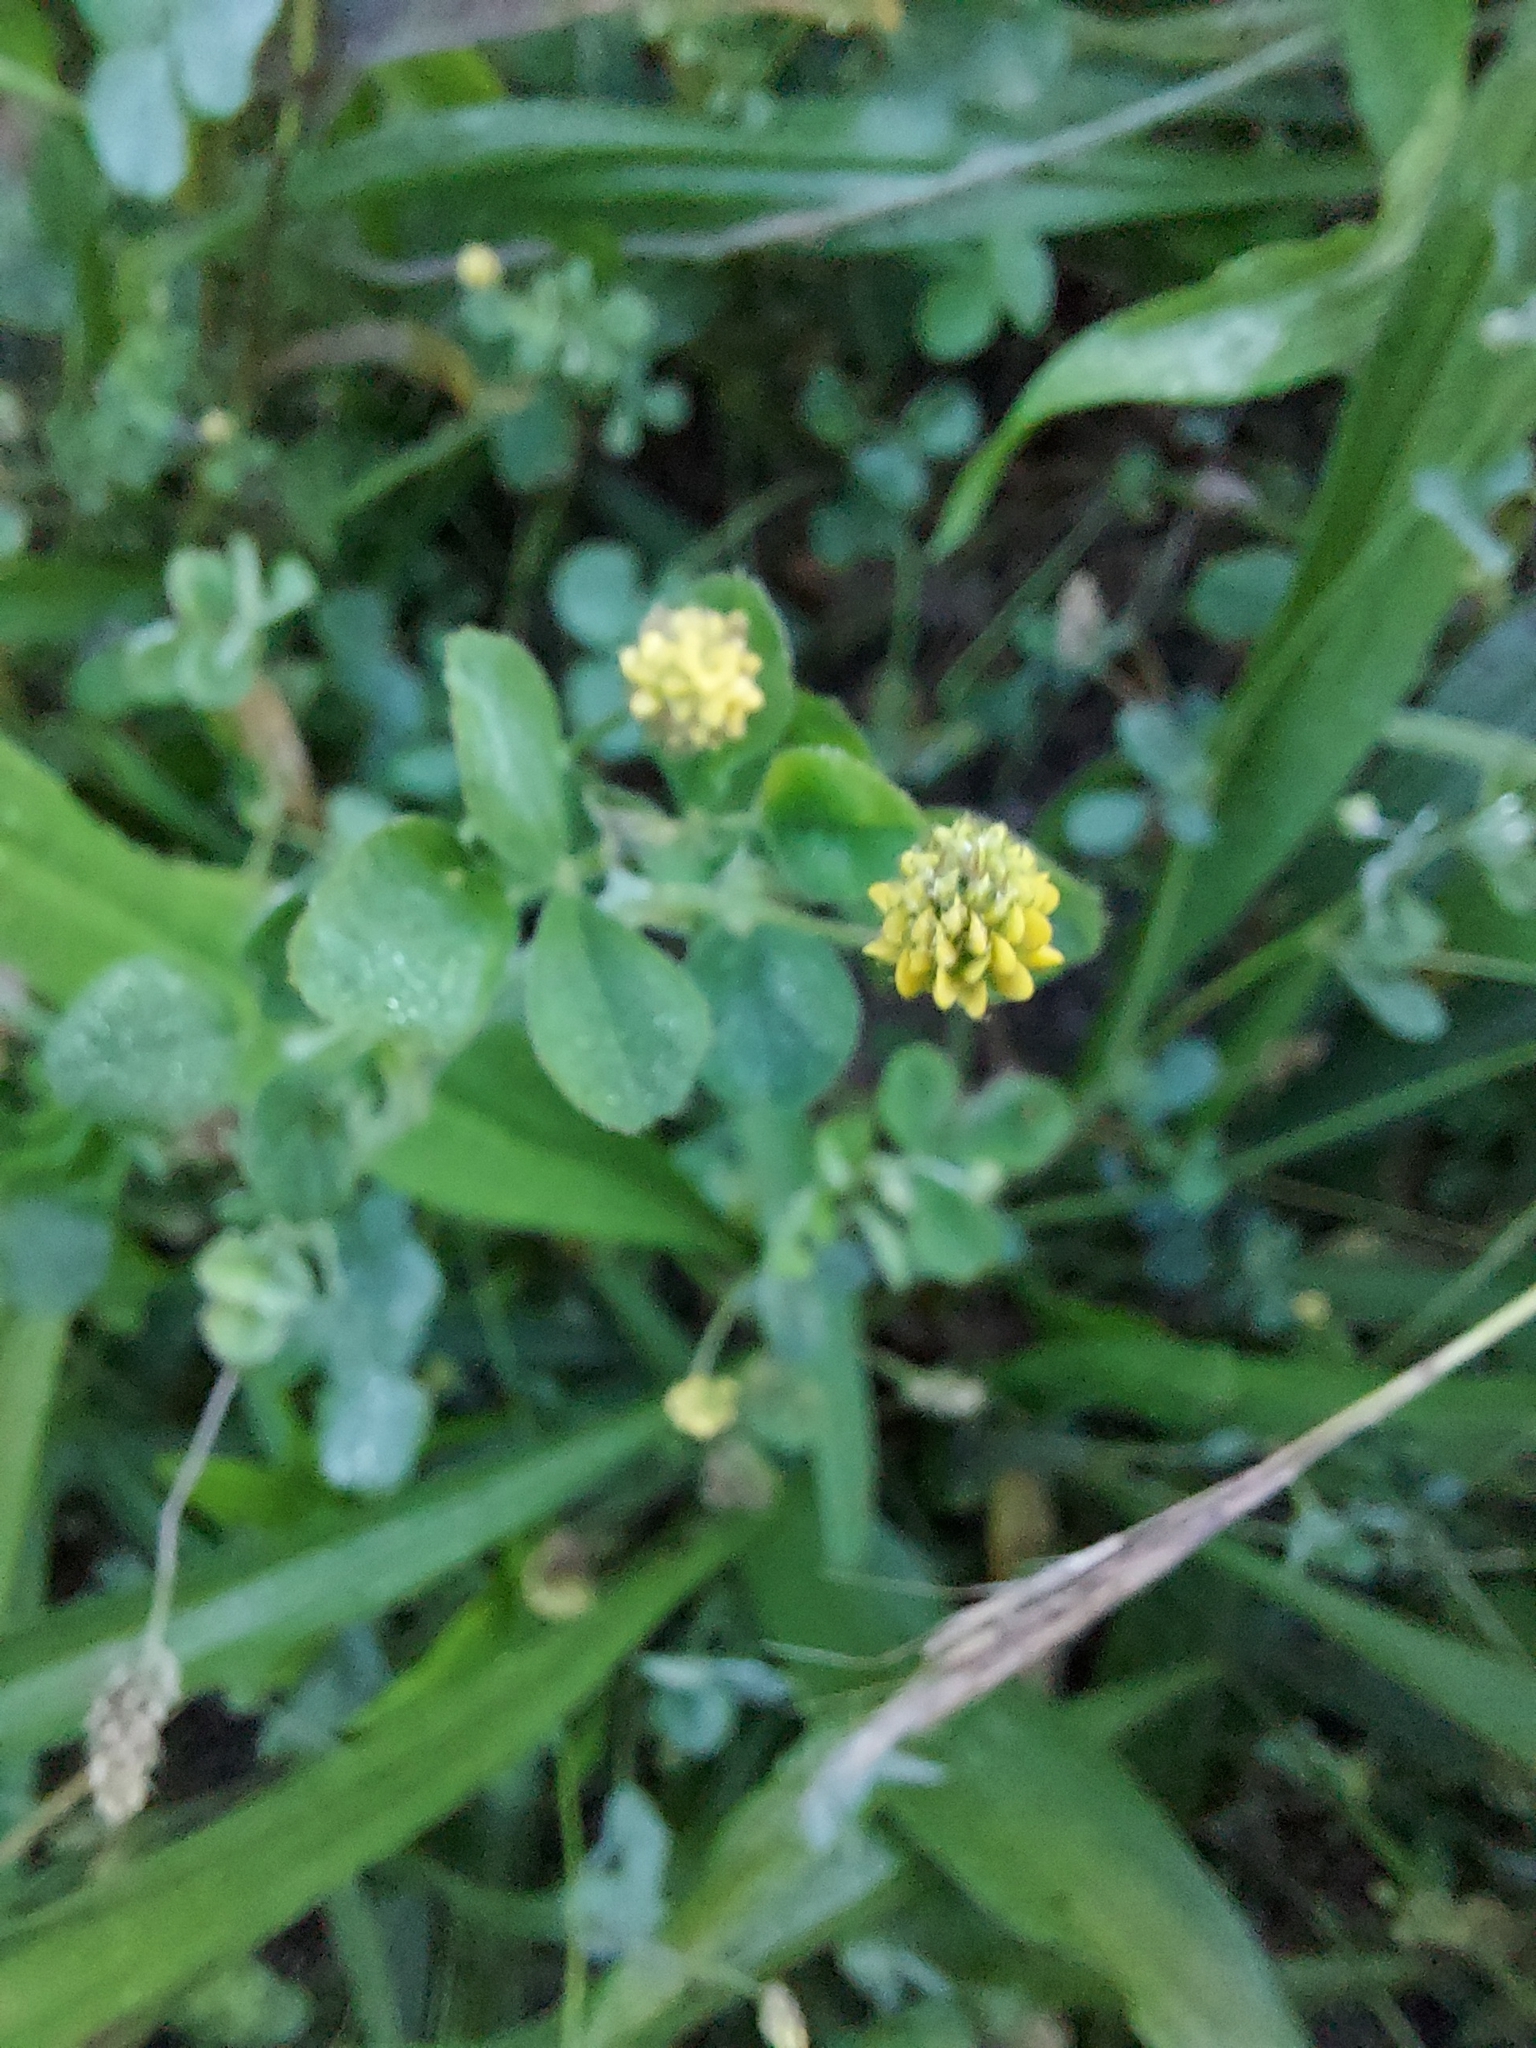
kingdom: Plantae
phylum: Tracheophyta
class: Magnoliopsida
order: Fabales
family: Fabaceae
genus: Medicago
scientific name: Medicago lupulina
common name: Black medick
